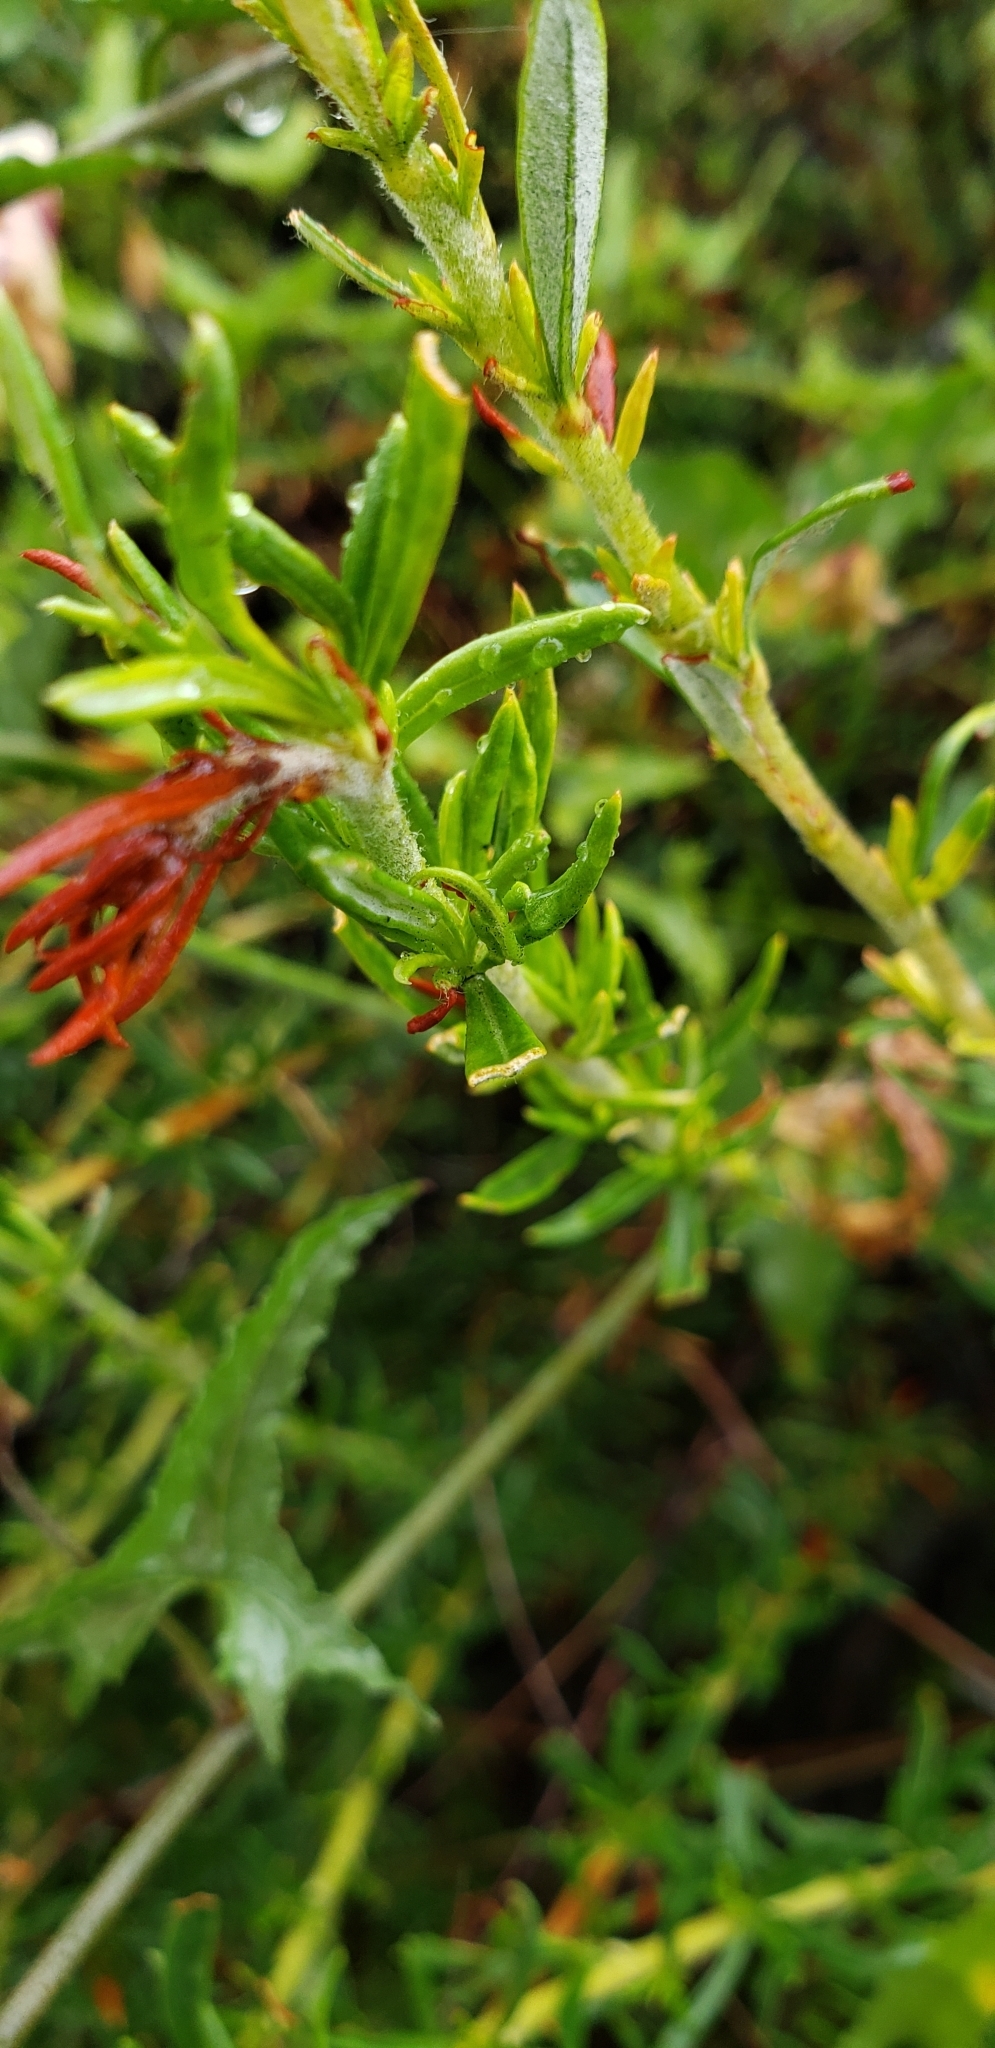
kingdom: Plantae
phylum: Tracheophyta
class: Magnoliopsida
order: Caryophyllales
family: Polygonaceae
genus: Eriogonum
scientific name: Eriogonum fasciculatum
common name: California wild buckwheat
